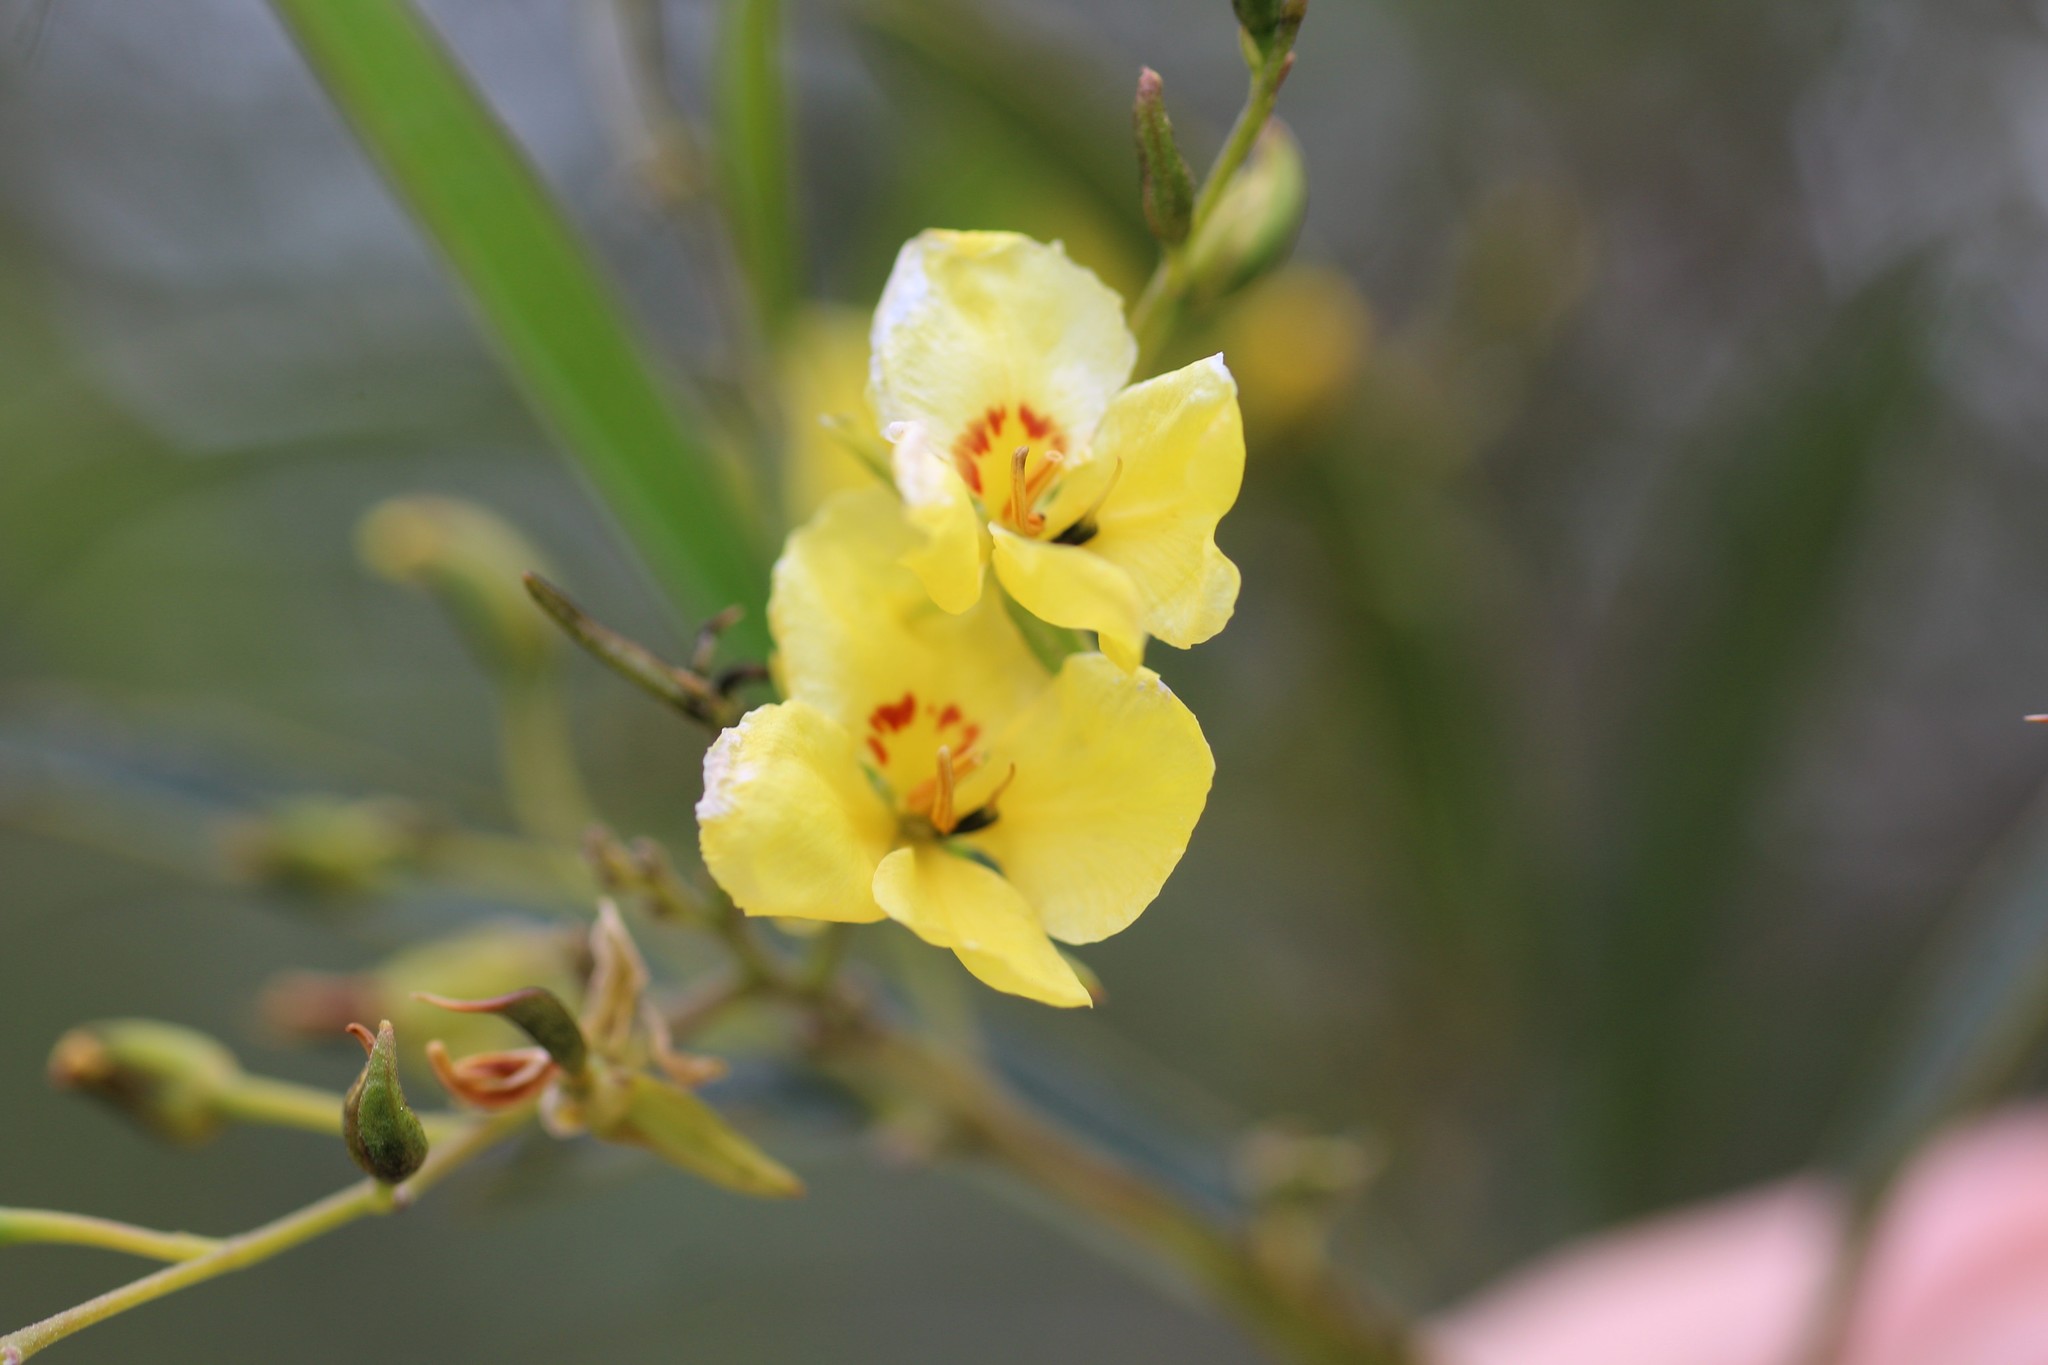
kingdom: Plantae
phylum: Tracheophyta
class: Magnoliopsida
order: Fabales
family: Fabaceae
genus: Labichea
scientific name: Labichea lanceolata
